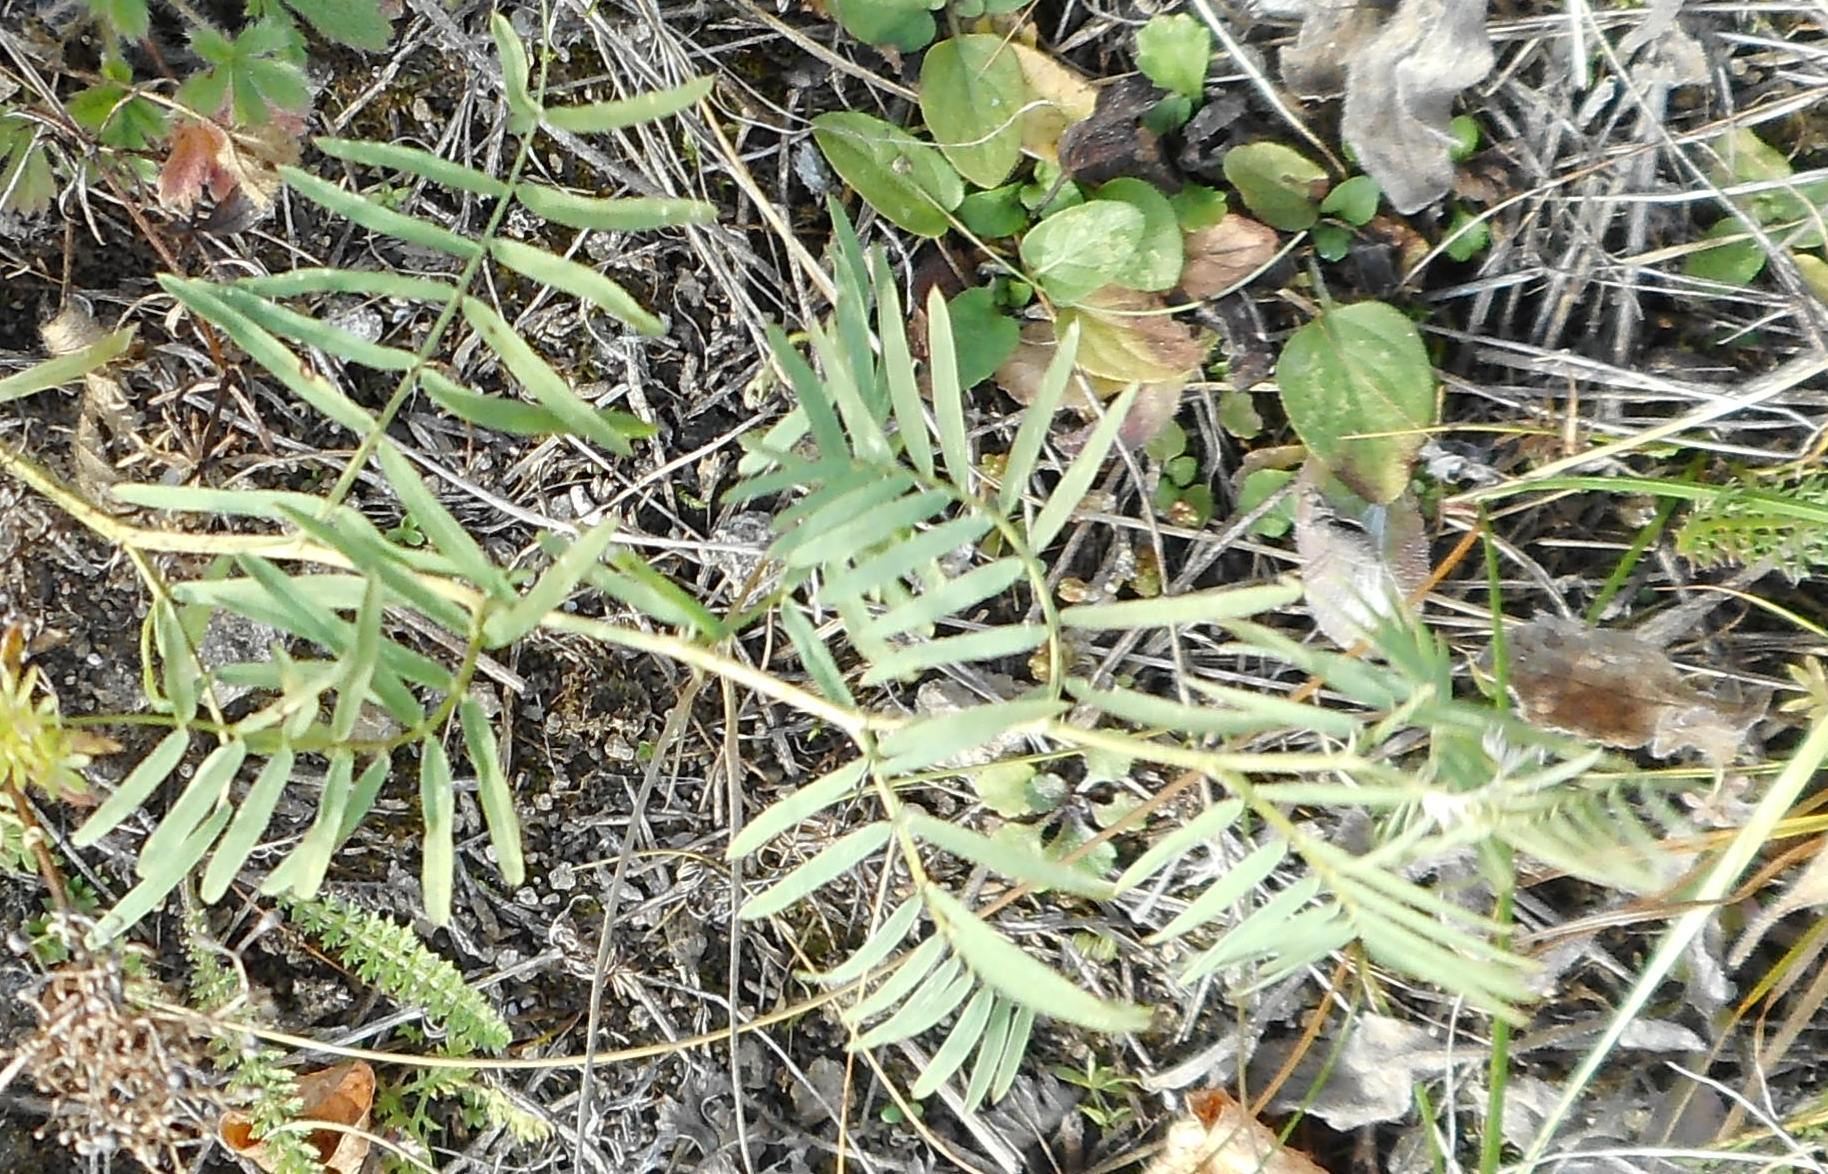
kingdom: Plantae
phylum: Tracheophyta
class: Magnoliopsida
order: Fabales
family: Fabaceae
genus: Vicia
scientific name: Vicia cracca
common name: Bird vetch
